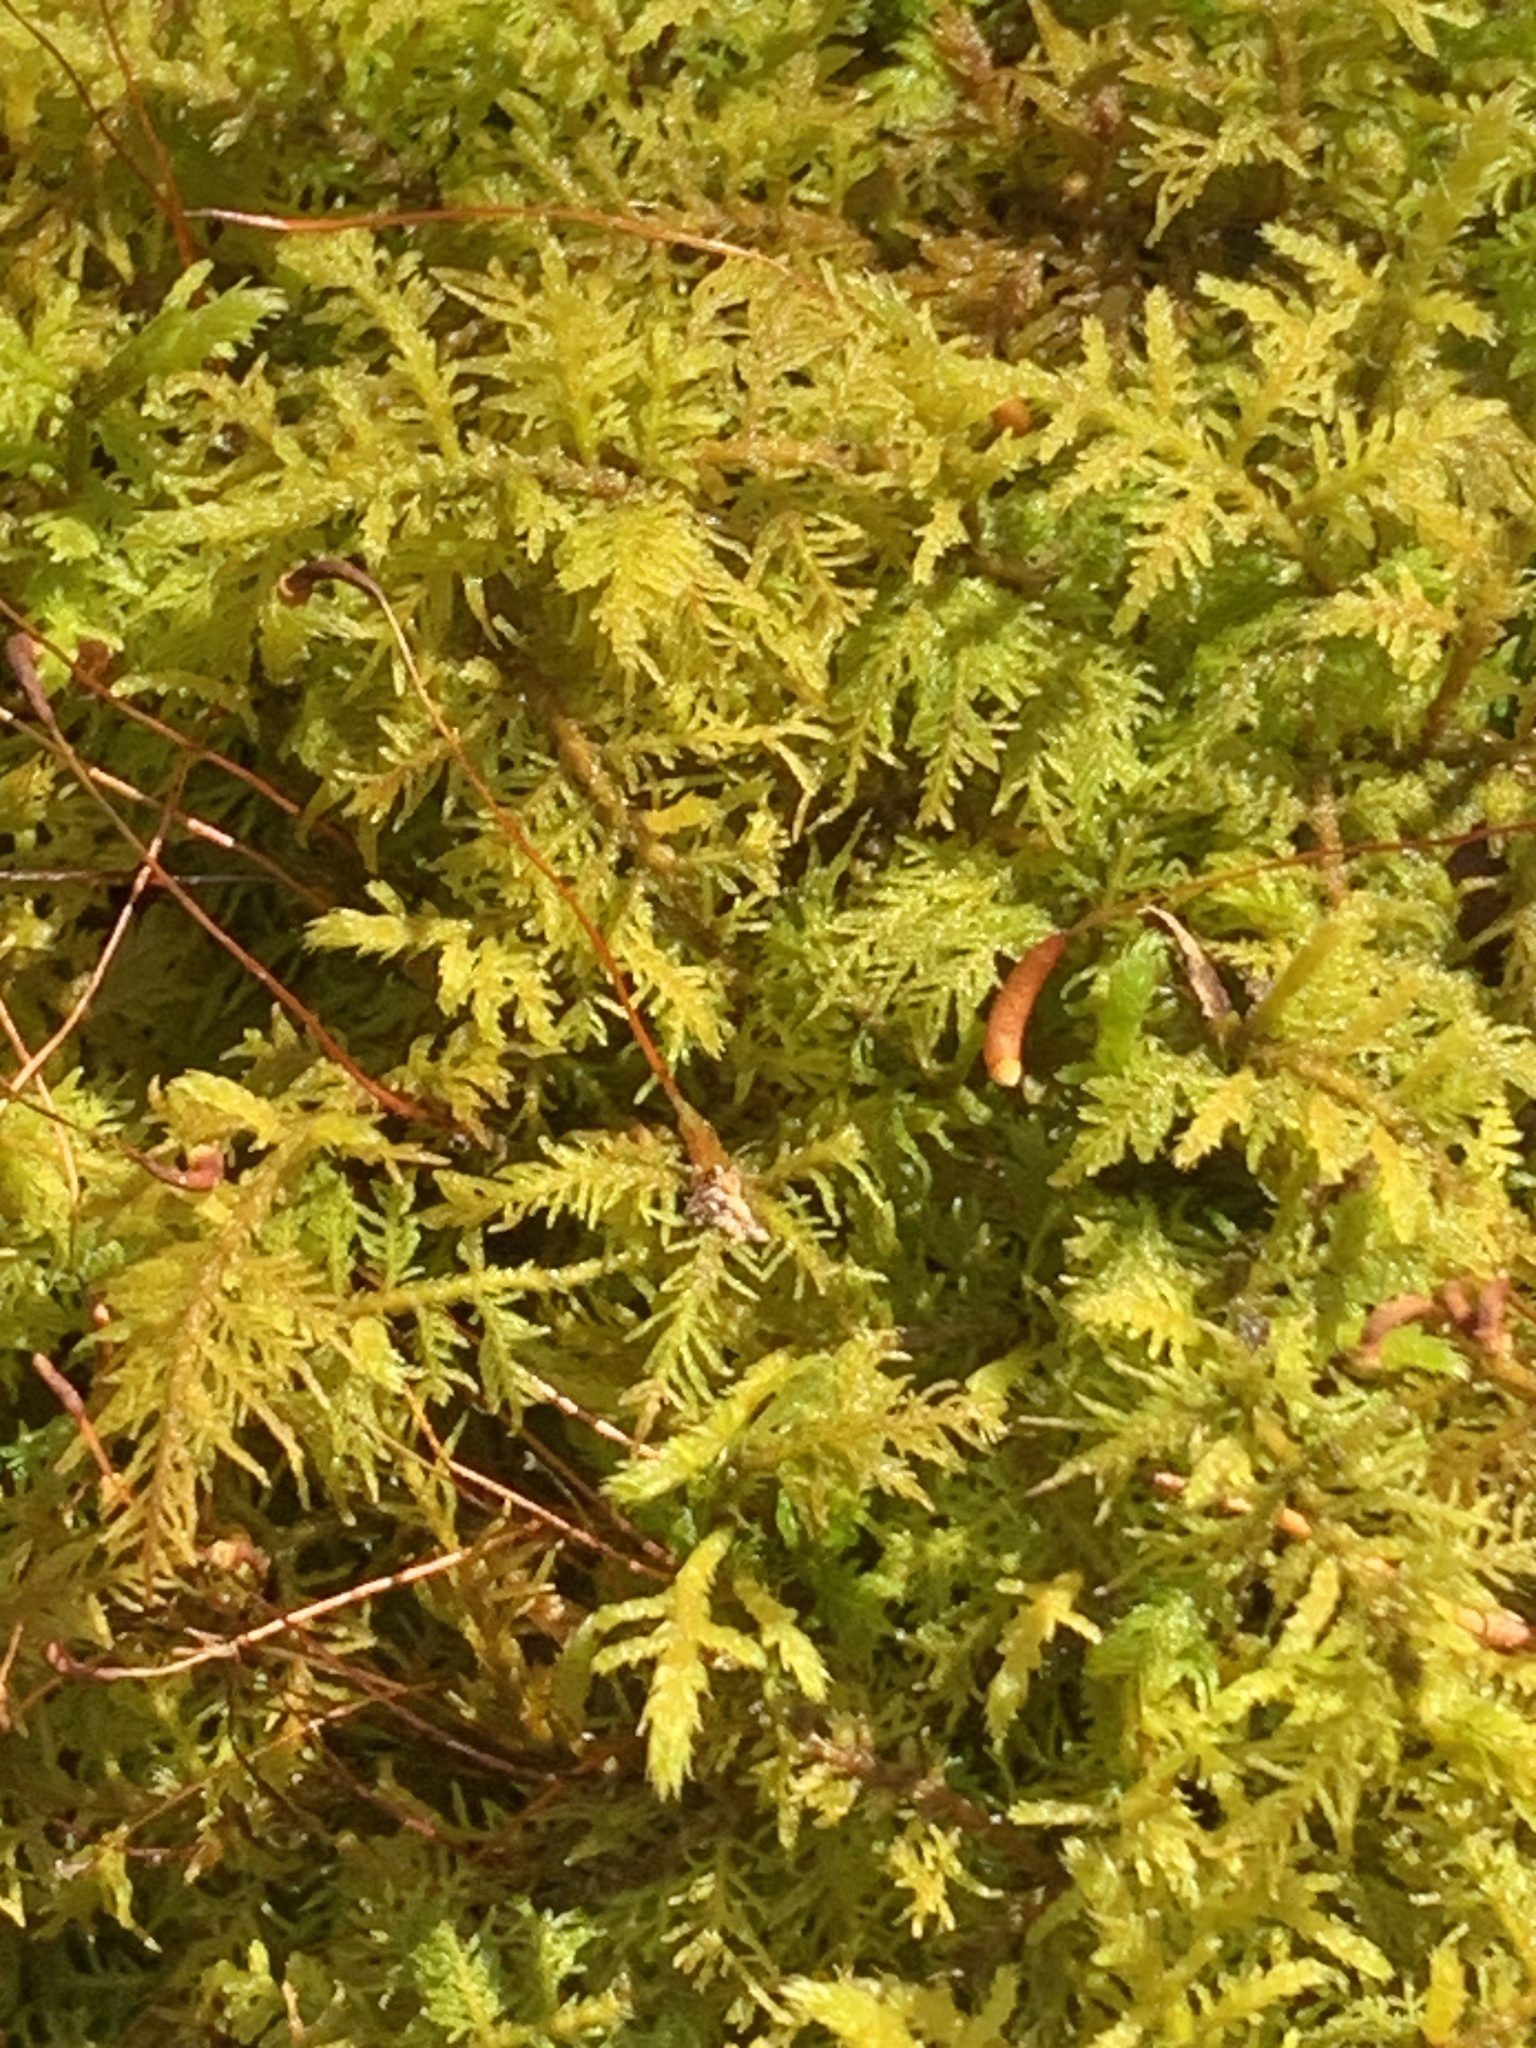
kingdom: Plantae
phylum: Bryophyta
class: Bryopsida
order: Hypnales
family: Thuidiaceae
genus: Thuidium
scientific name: Thuidium delicatulum
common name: Delicate fern moss
